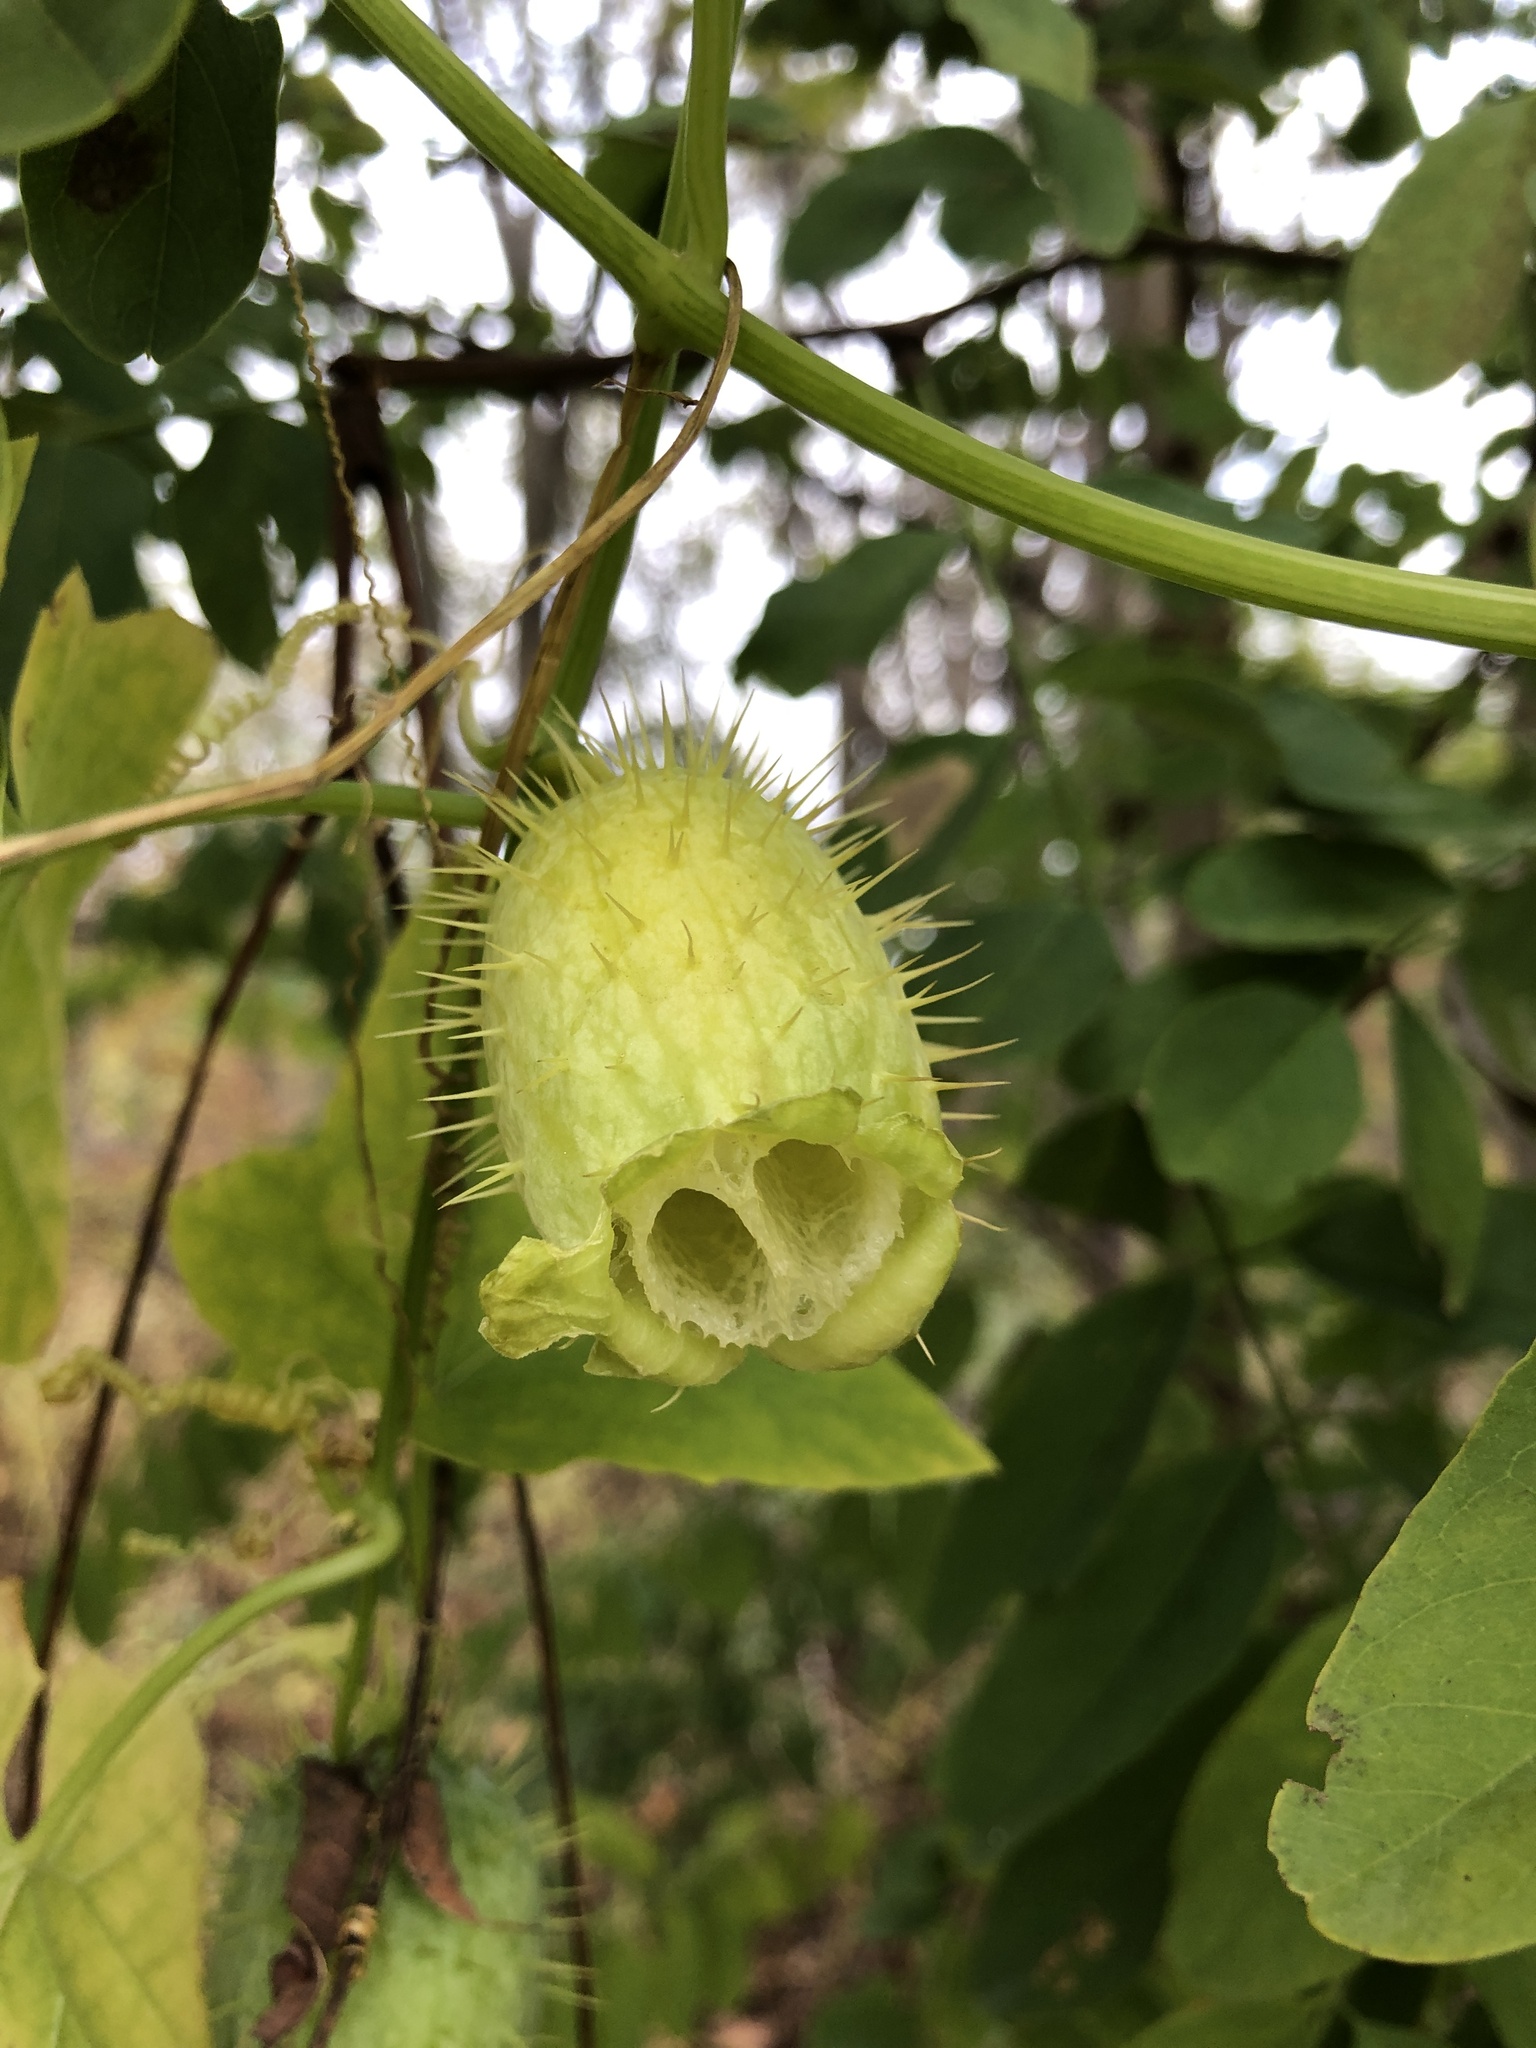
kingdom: Plantae
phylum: Tracheophyta
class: Magnoliopsida
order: Cucurbitales
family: Cucurbitaceae
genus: Echinocystis
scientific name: Echinocystis lobata
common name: Wild cucumber
